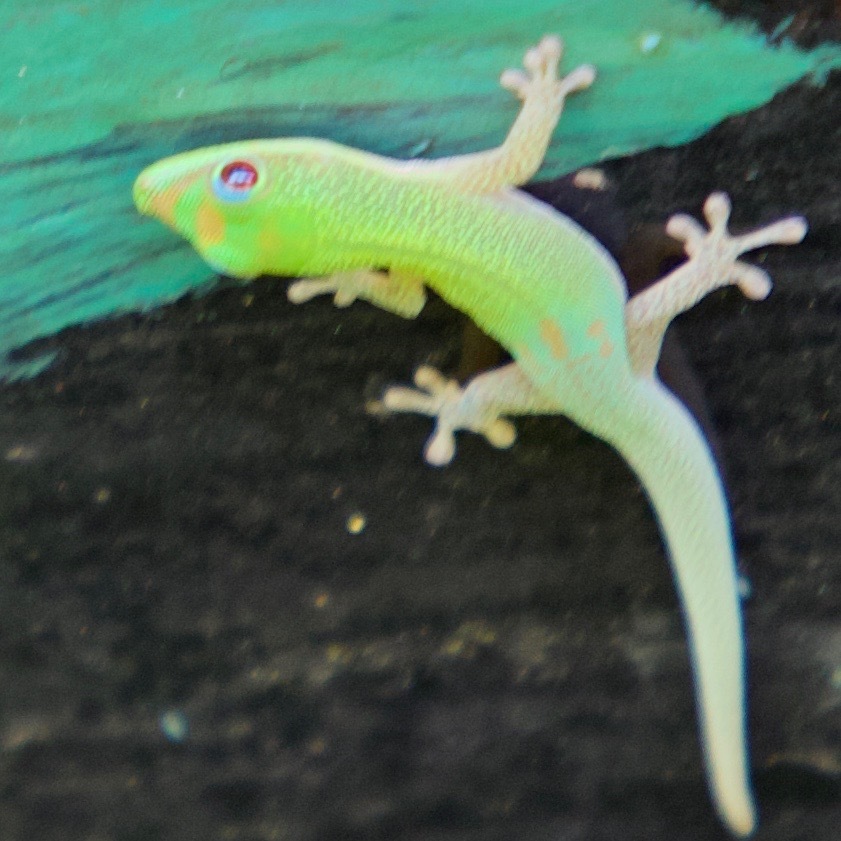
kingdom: Animalia
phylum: Chordata
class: Squamata
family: Gekkonidae
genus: Phelsuma
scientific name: Phelsuma laticauda
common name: Gold dust day gecko
